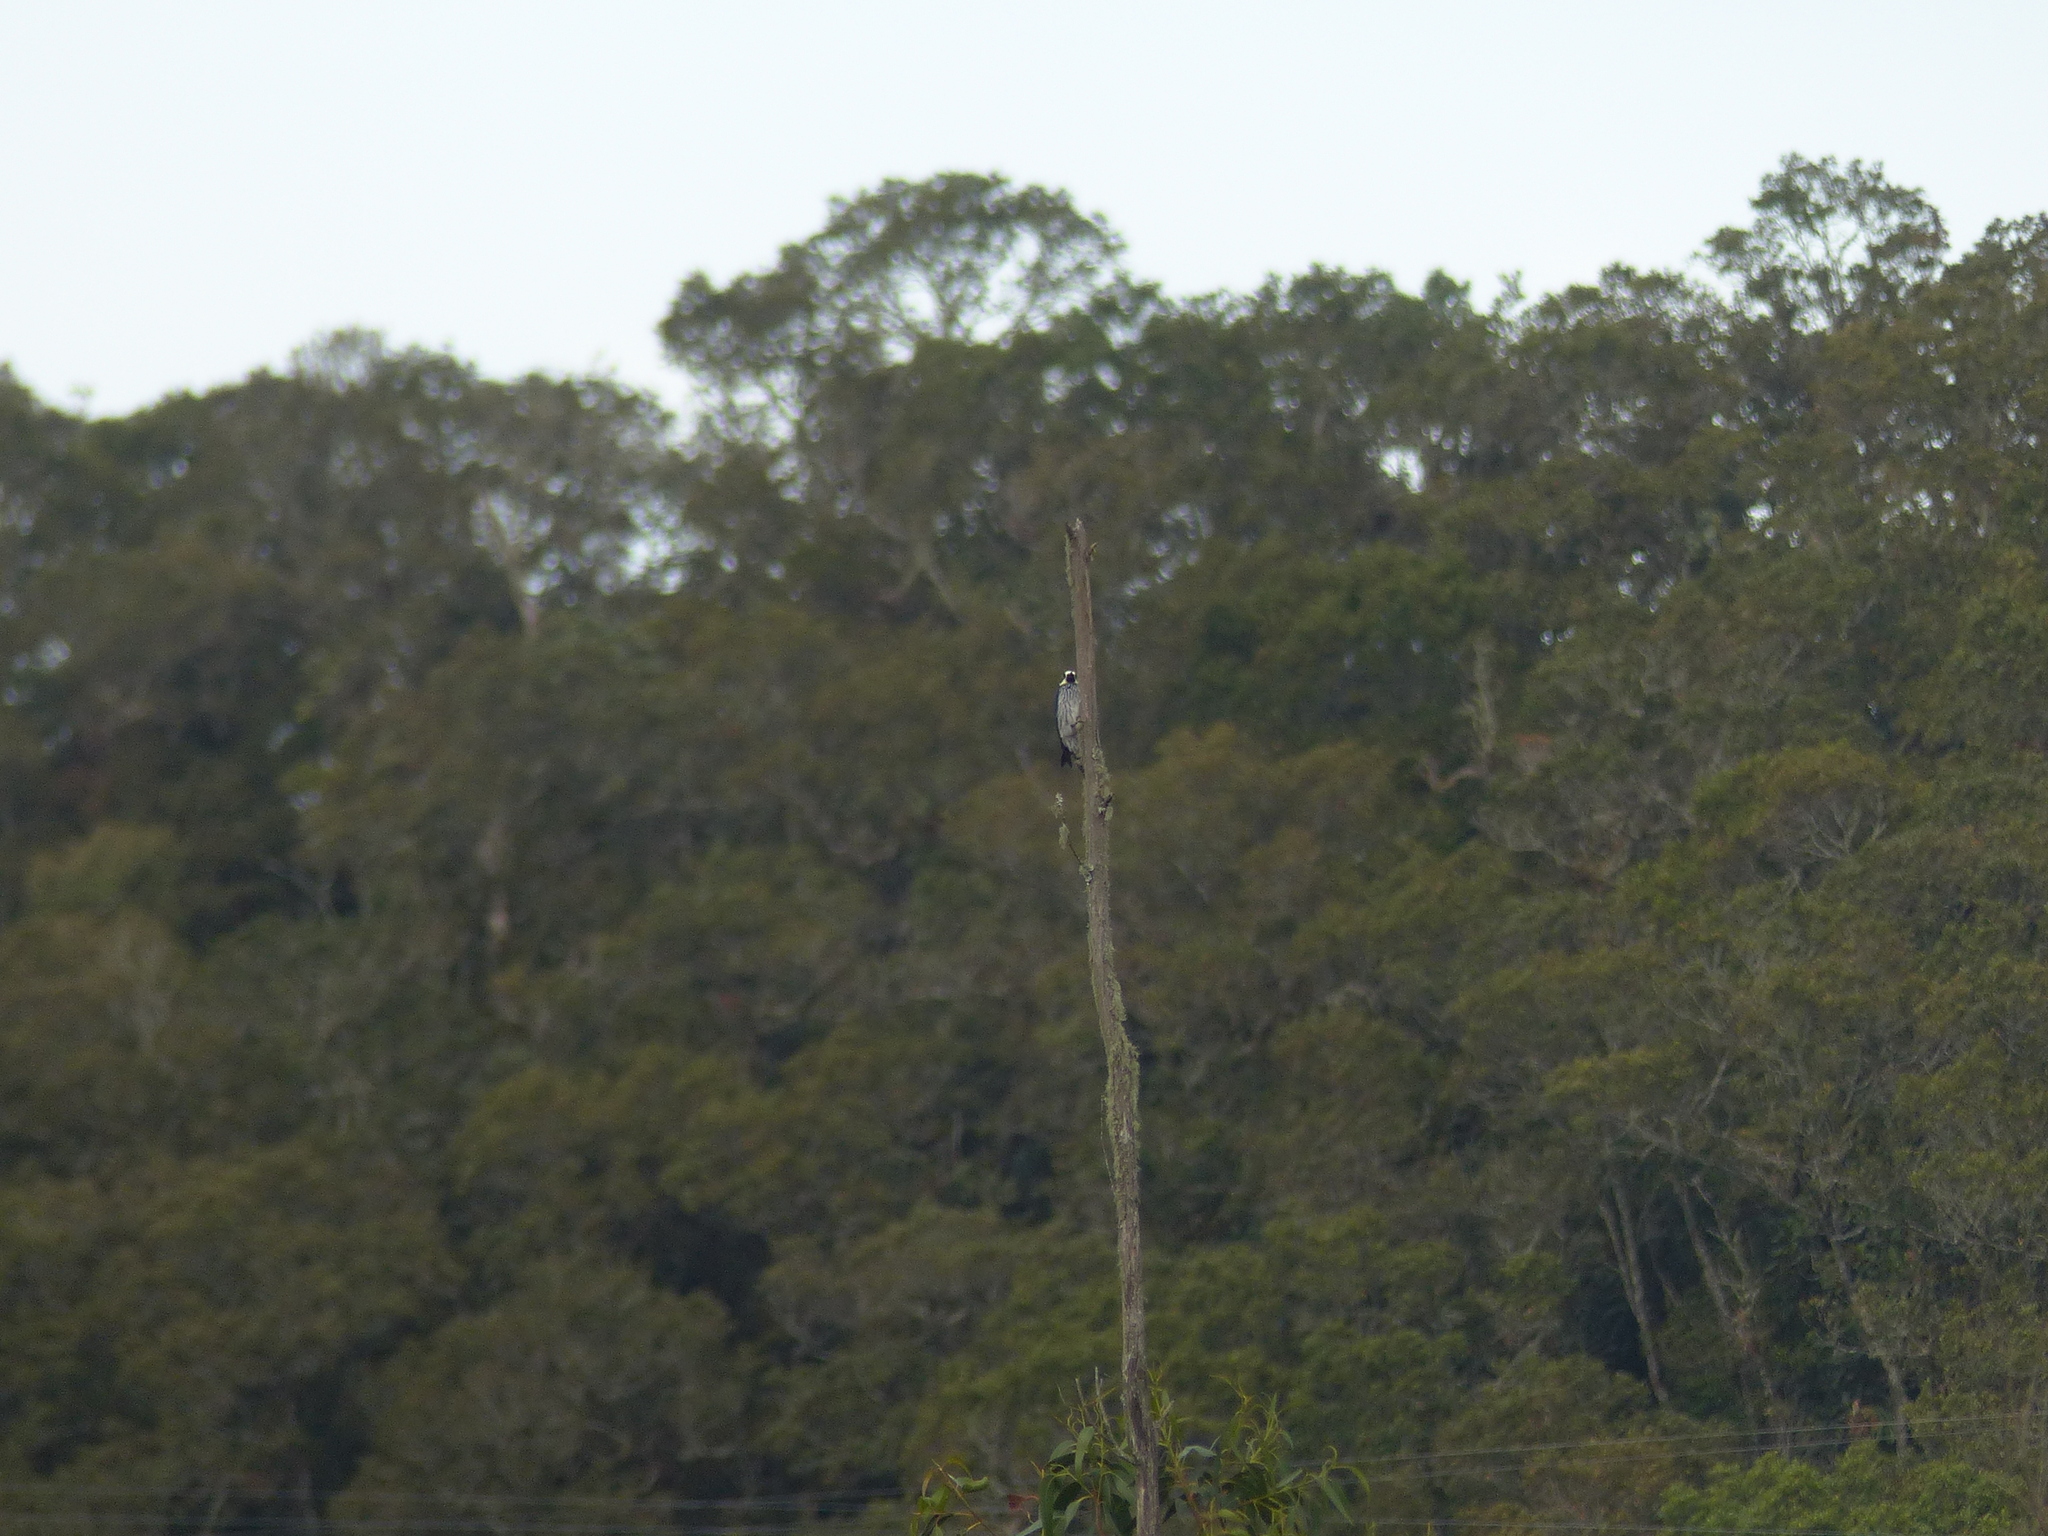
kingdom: Animalia
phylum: Chordata
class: Aves
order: Piciformes
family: Picidae
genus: Melanerpes
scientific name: Melanerpes formicivorus
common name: Acorn woodpecker
